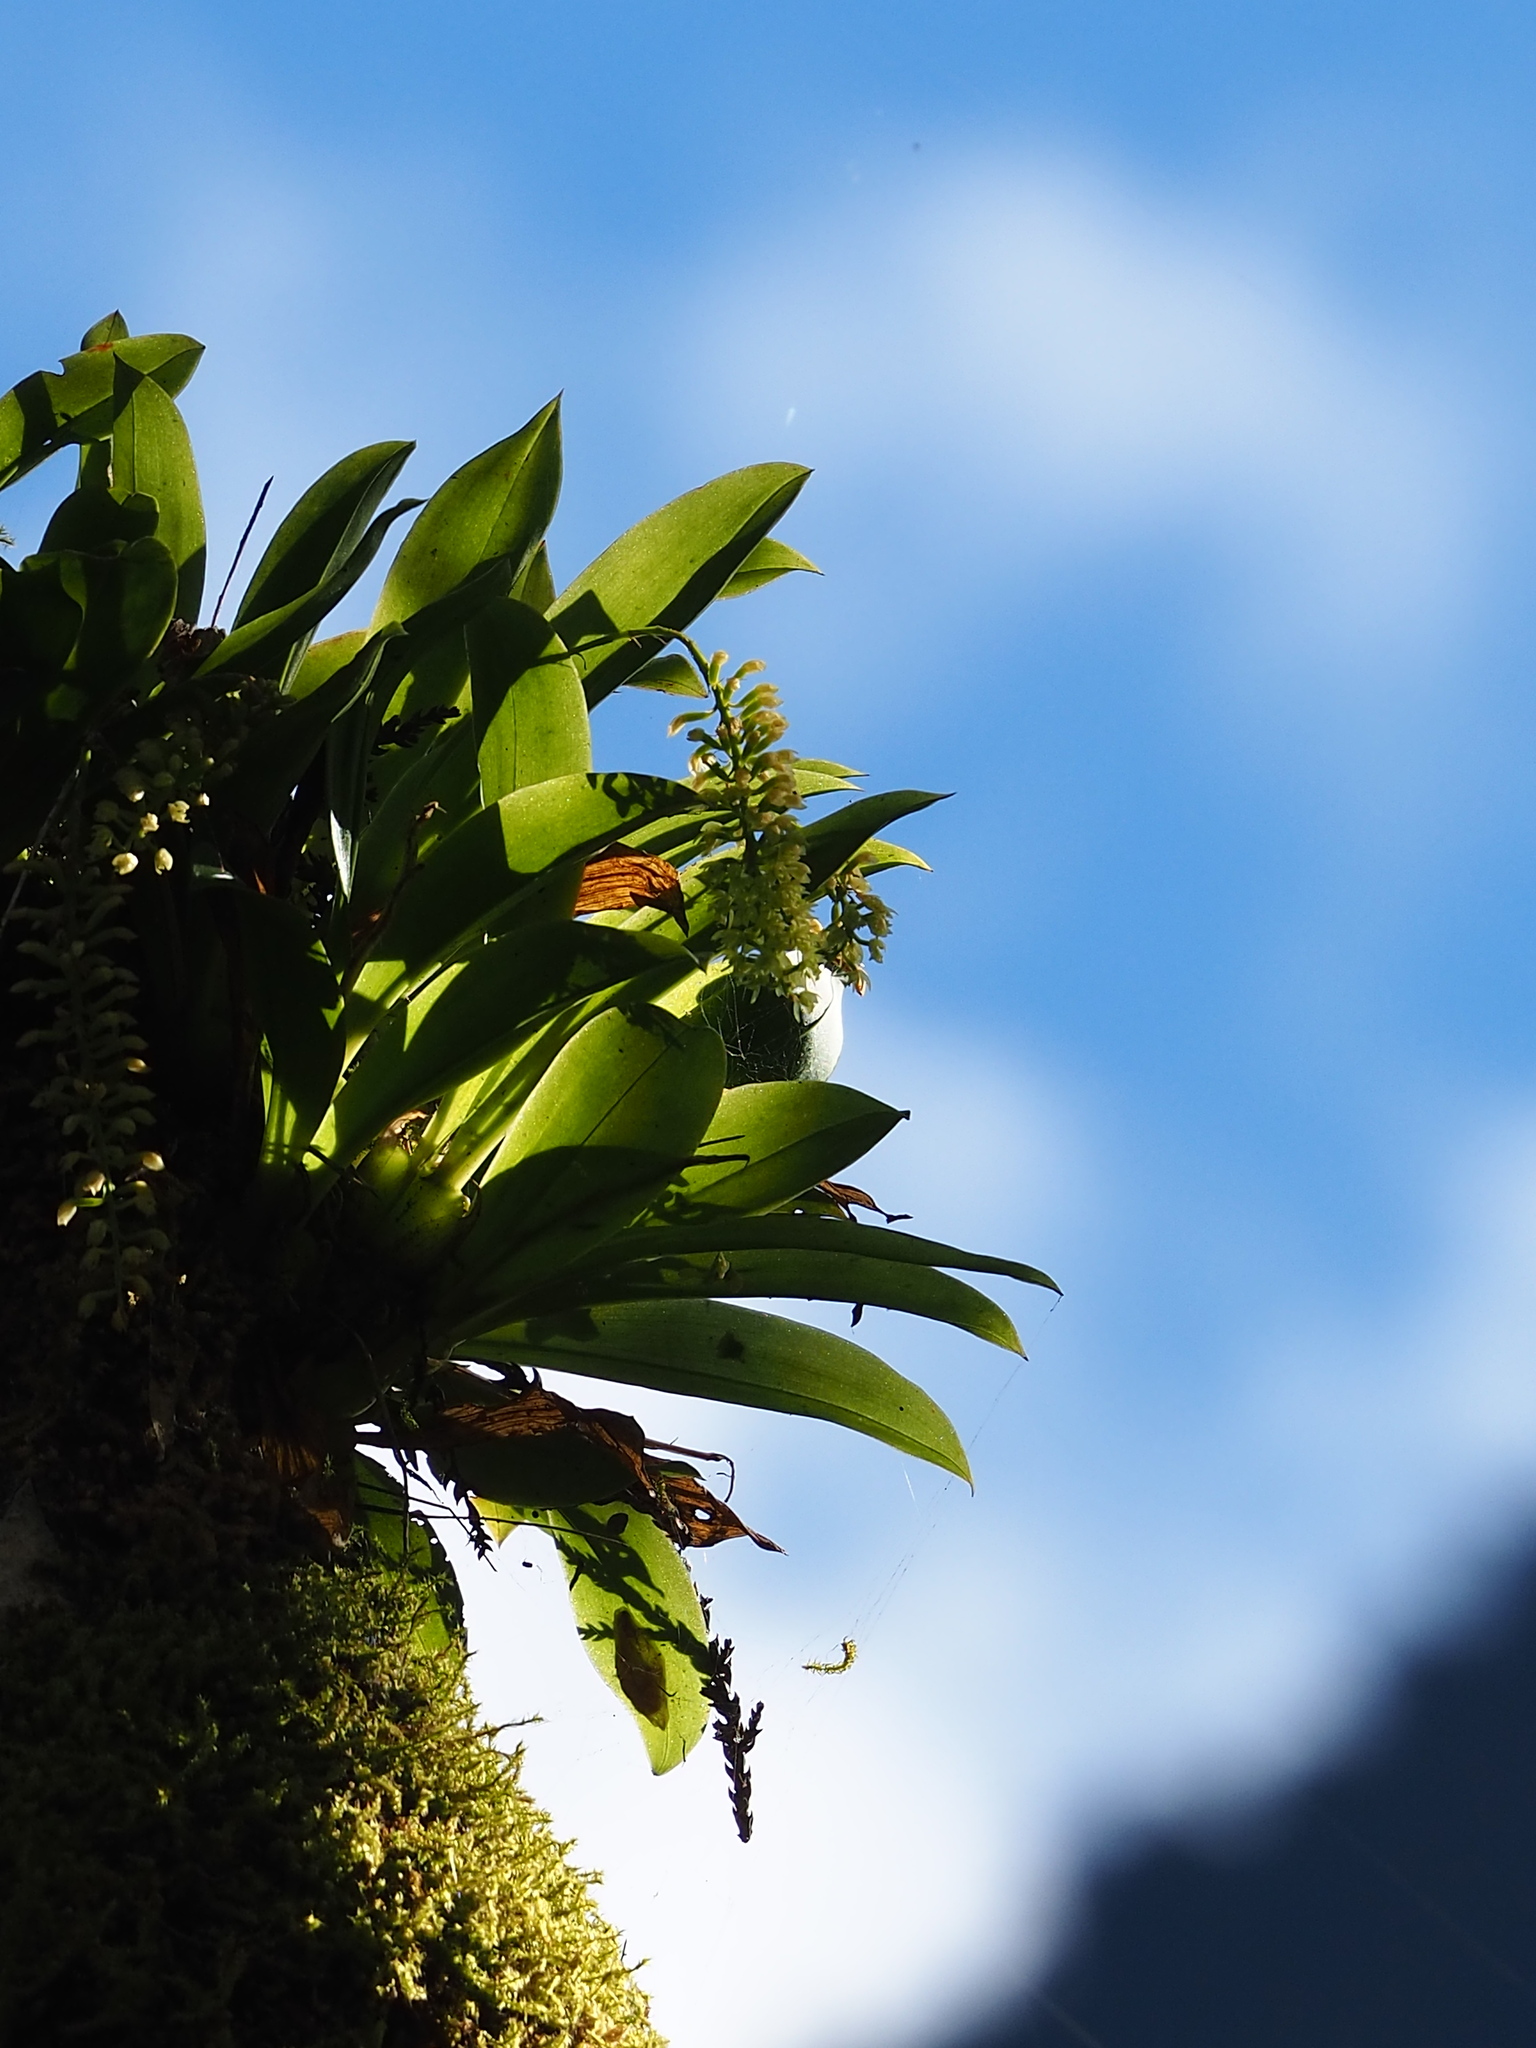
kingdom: Plantae
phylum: Tracheophyta
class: Liliopsida
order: Asparagales
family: Orchidaceae
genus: Liparis
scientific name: Liparis elliptica
